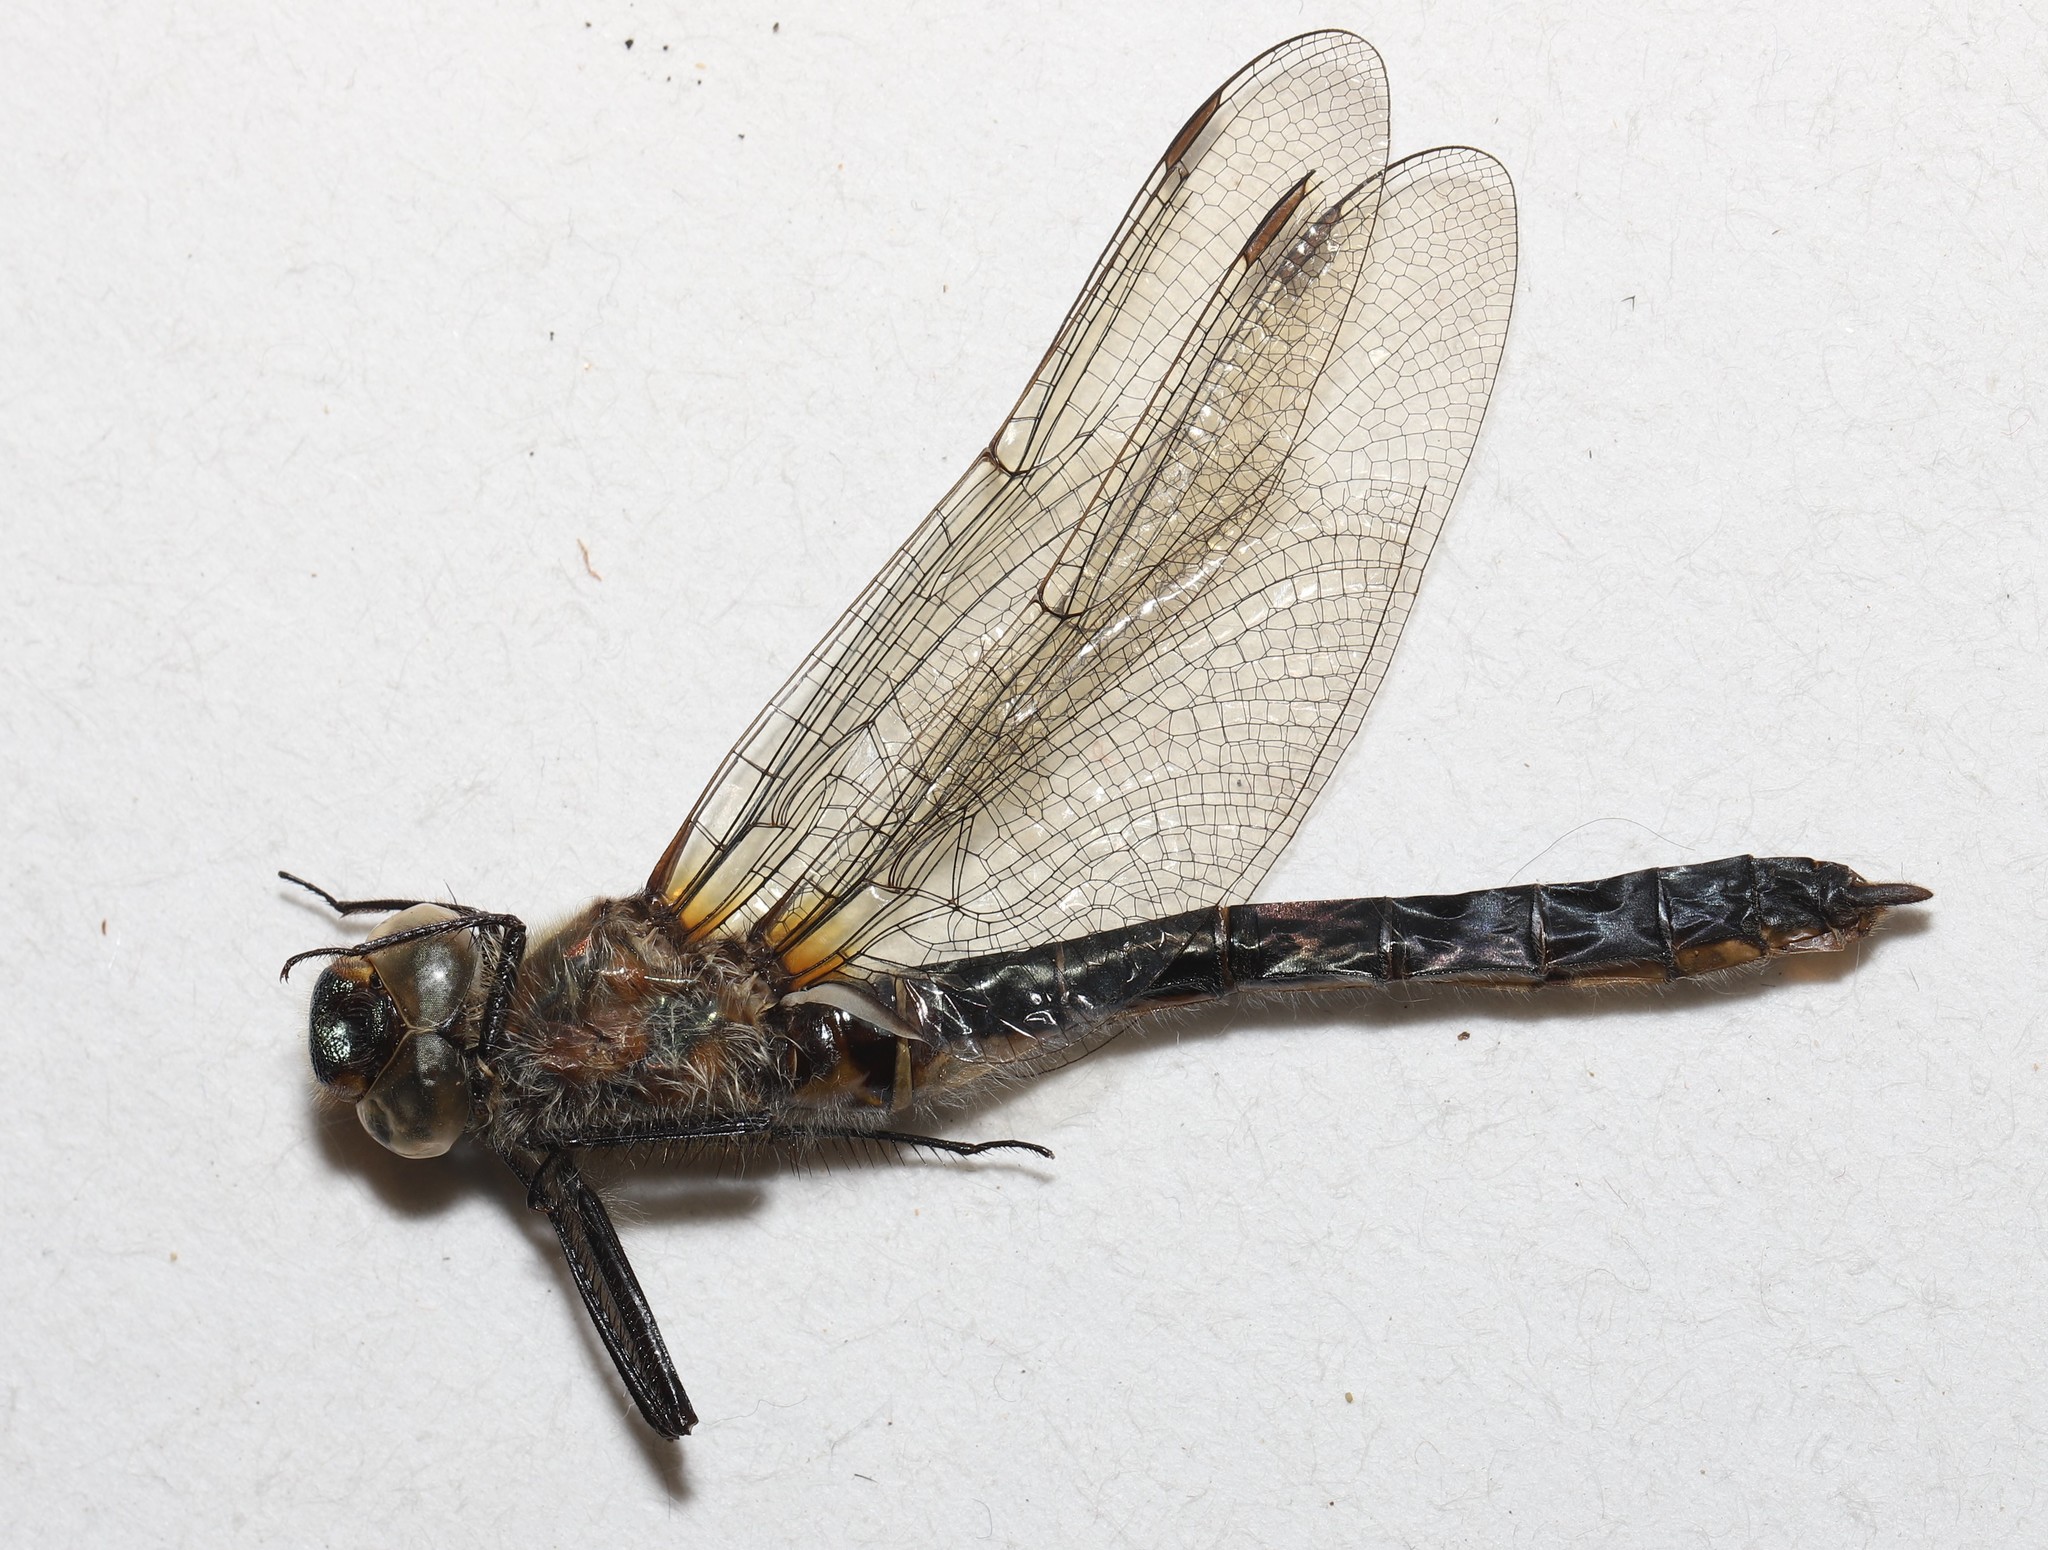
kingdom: Animalia
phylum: Arthropoda
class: Insecta
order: Odonata
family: Corduliidae
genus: Cordulia
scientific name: Cordulia shurtleffii
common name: American emerald
